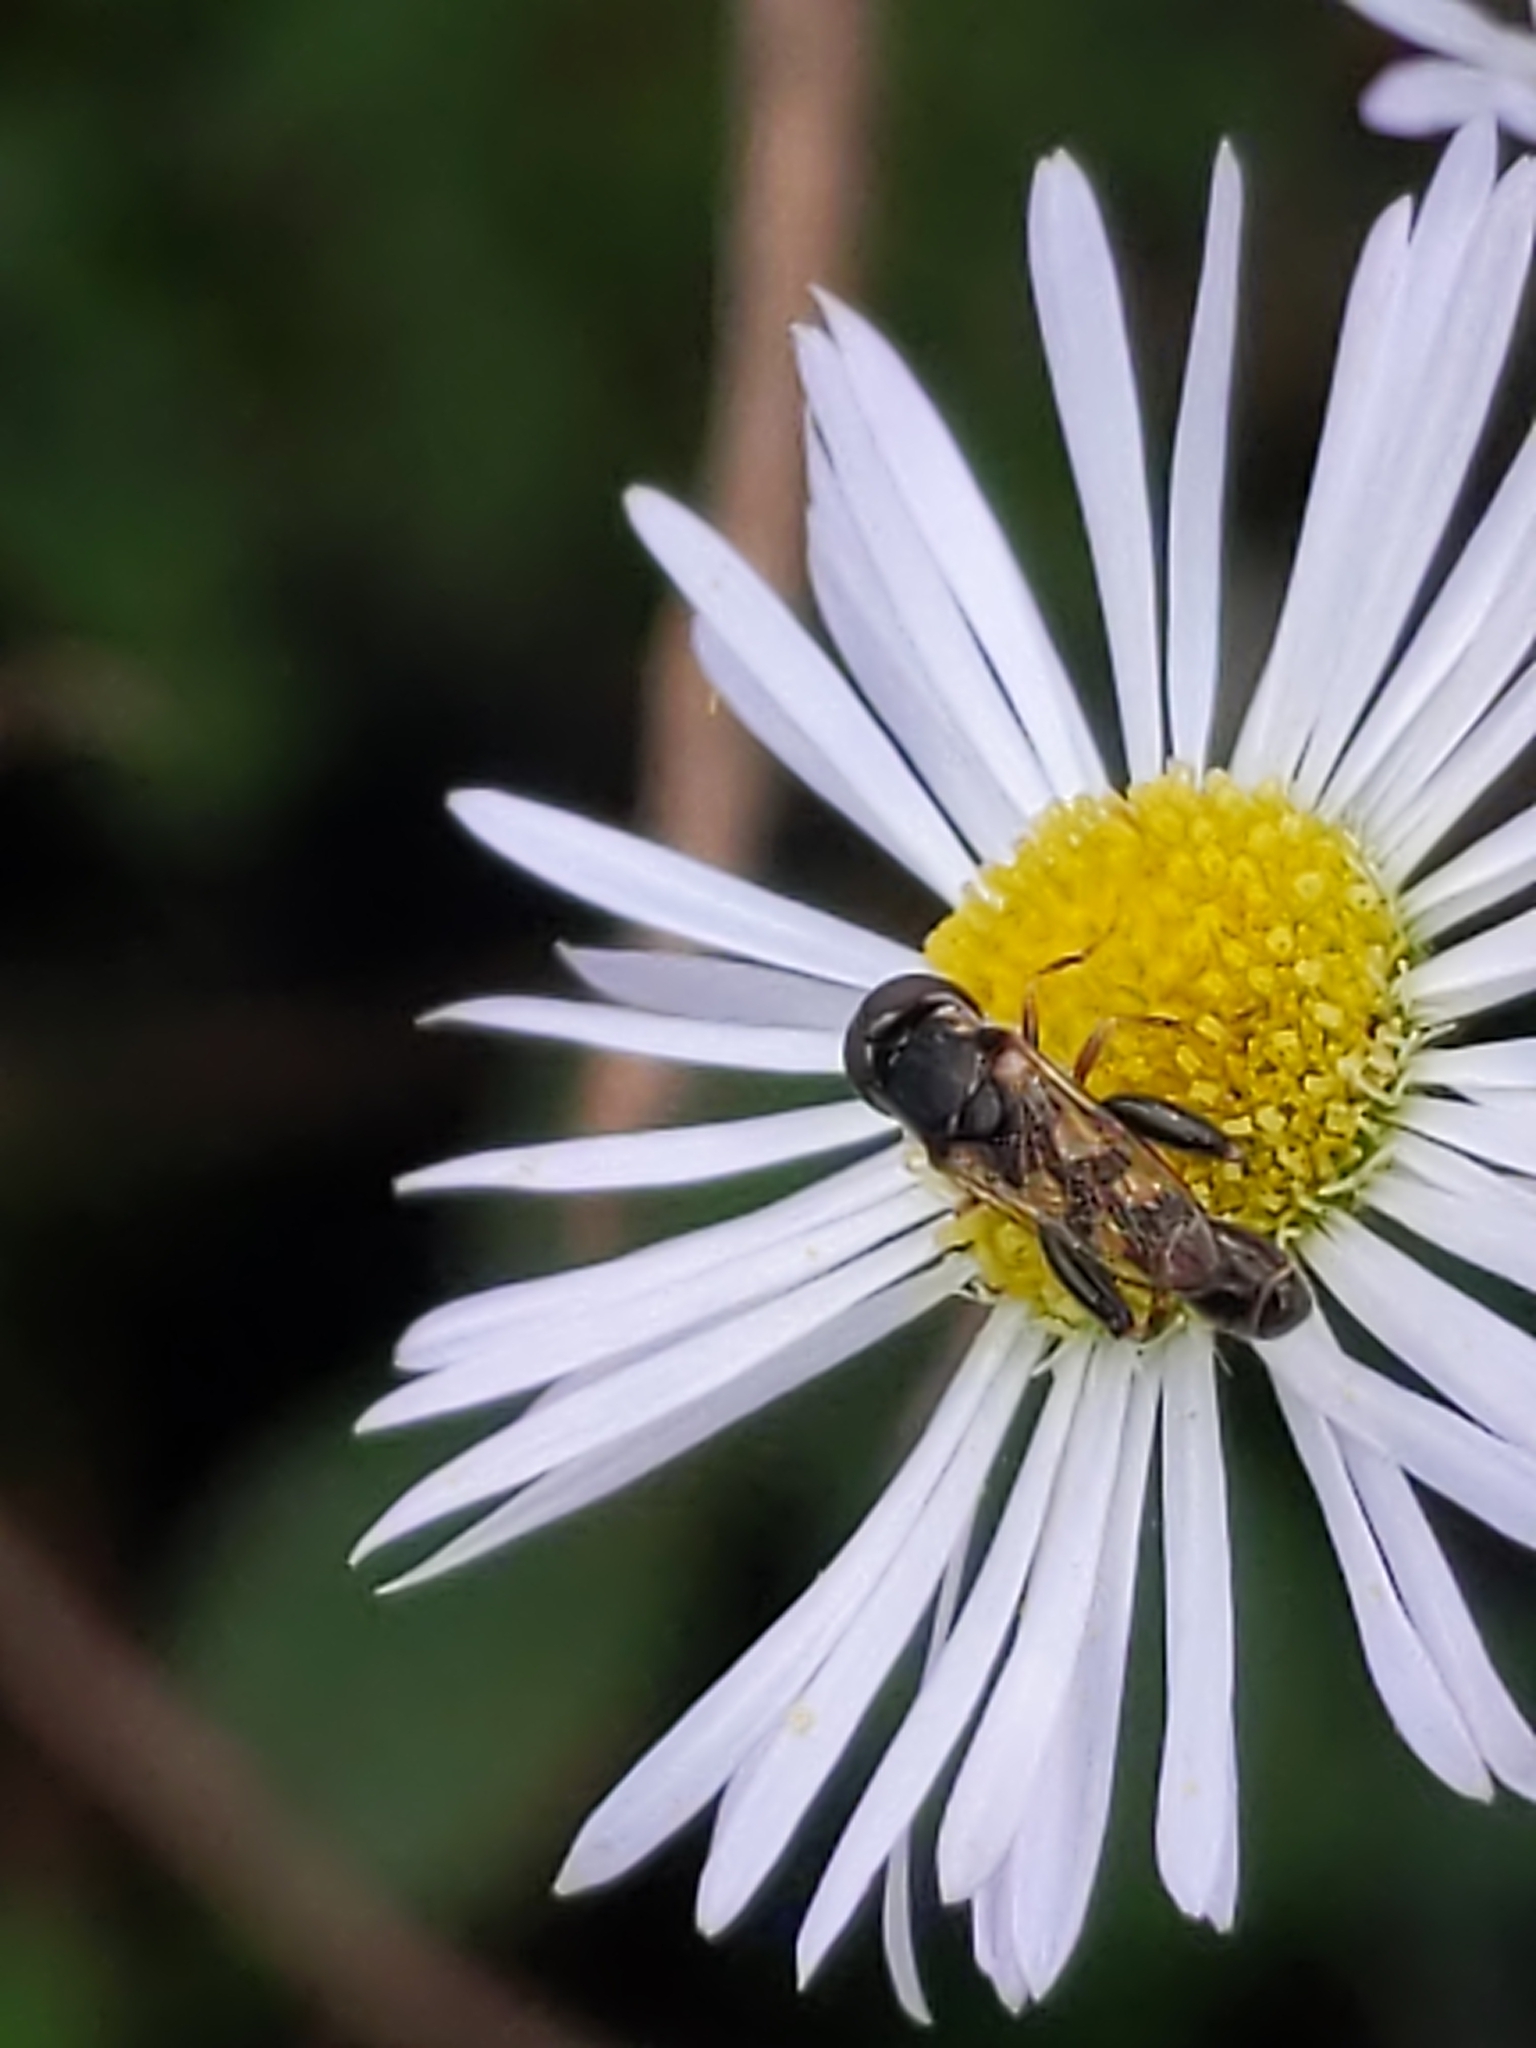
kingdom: Animalia
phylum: Arthropoda
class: Insecta
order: Diptera
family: Syrphidae
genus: Syritta
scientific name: Syritta pipiens
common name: Hover fly
